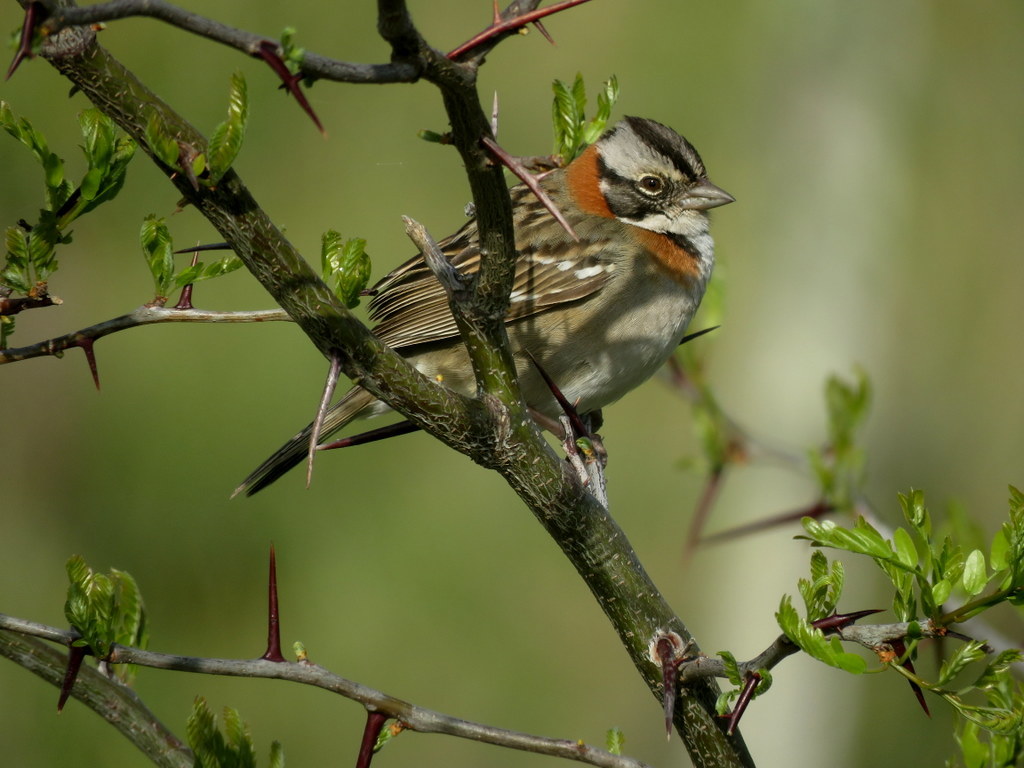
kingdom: Animalia
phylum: Chordata
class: Aves
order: Passeriformes
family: Passerellidae
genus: Zonotrichia
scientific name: Zonotrichia capensis
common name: Rufous-collared sparrow
